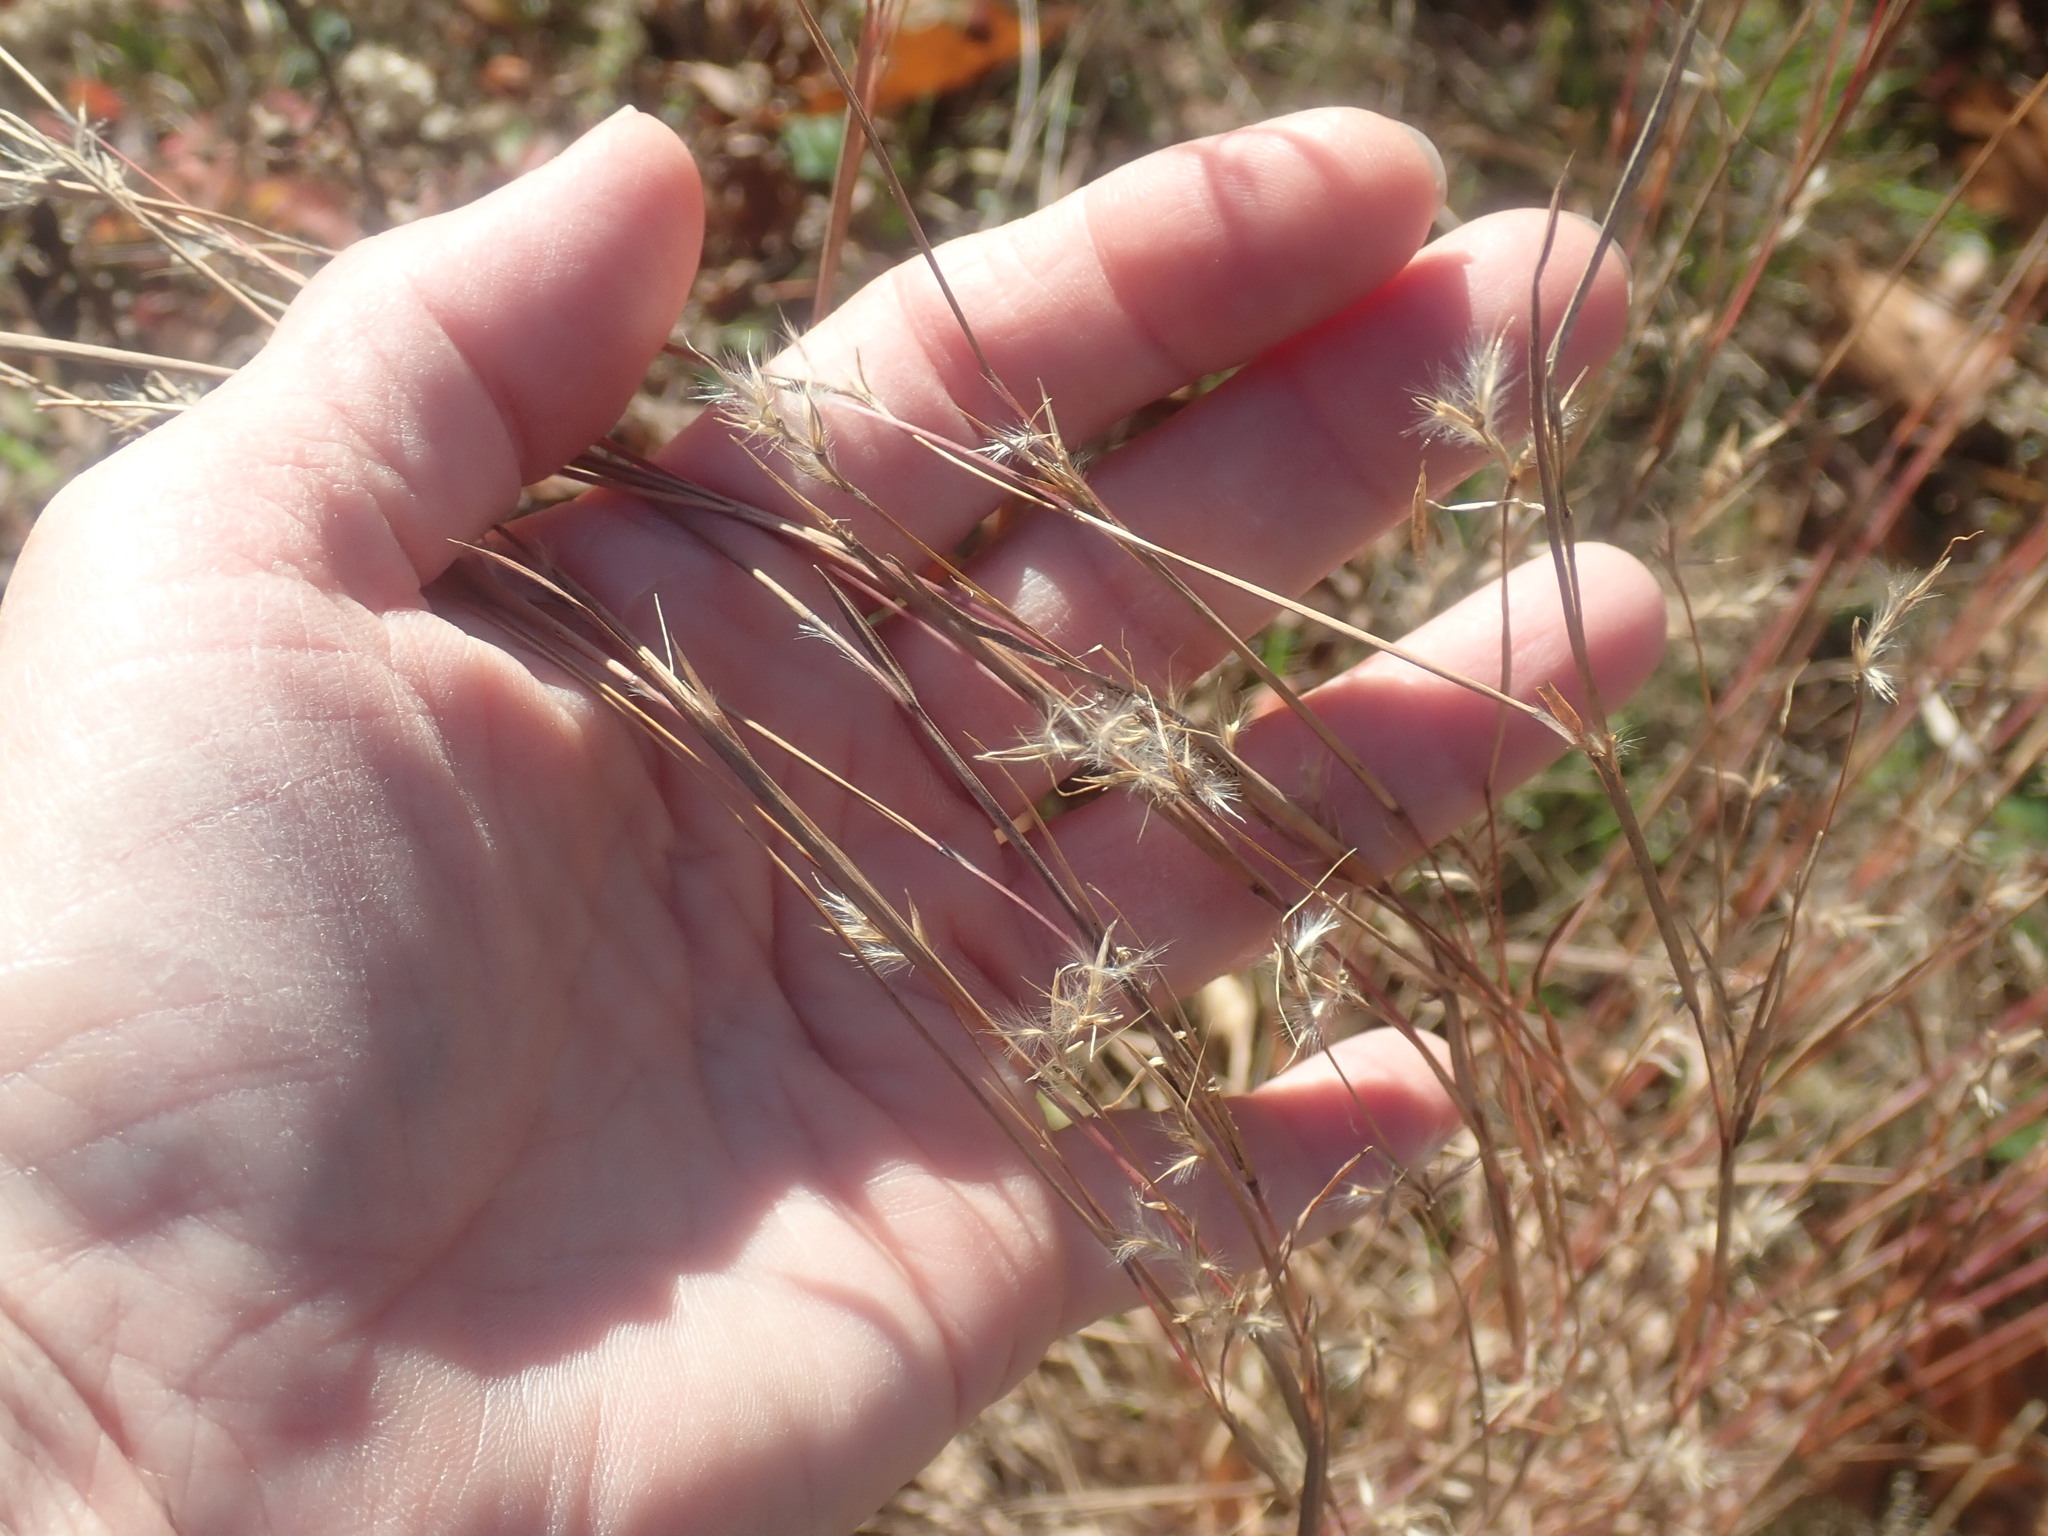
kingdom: Plantae
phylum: Tracheophyta
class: Liliopsida
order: Poales
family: Poaceae
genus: Schizachyrium
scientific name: Schizachyrium scoparium
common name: Little bluestem
